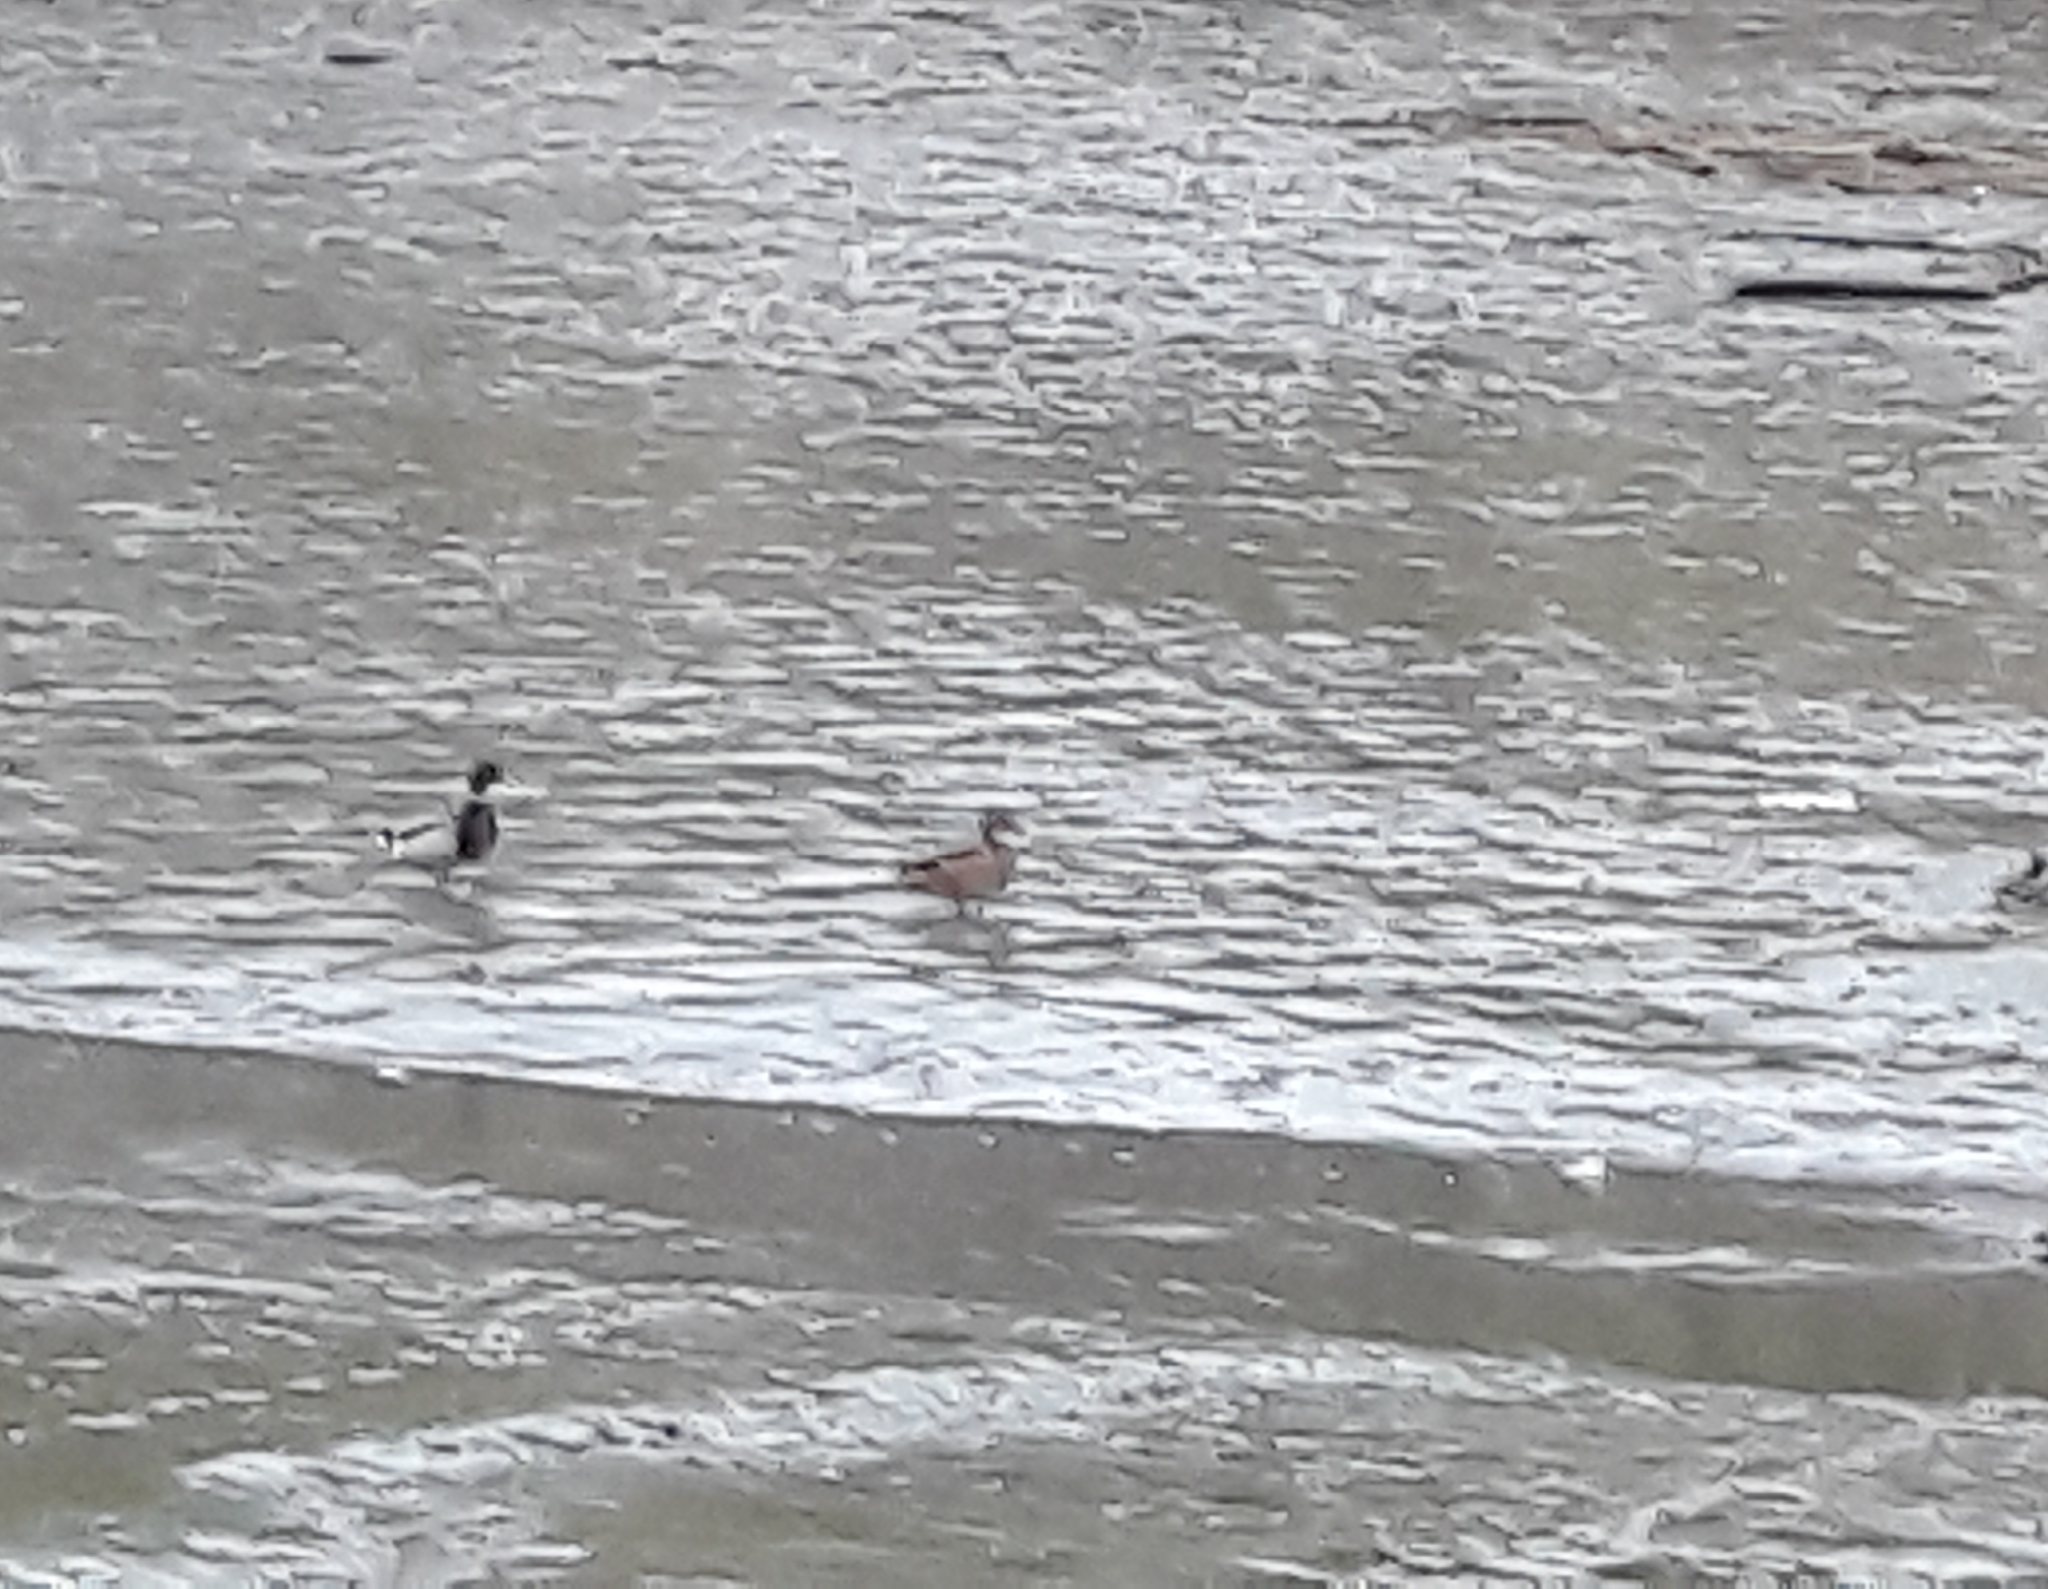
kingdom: Animalia
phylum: Chordata
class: Aves
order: Anseriformes
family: Anatidae
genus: Anas
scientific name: Anas platyrhynchos
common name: Mallard
